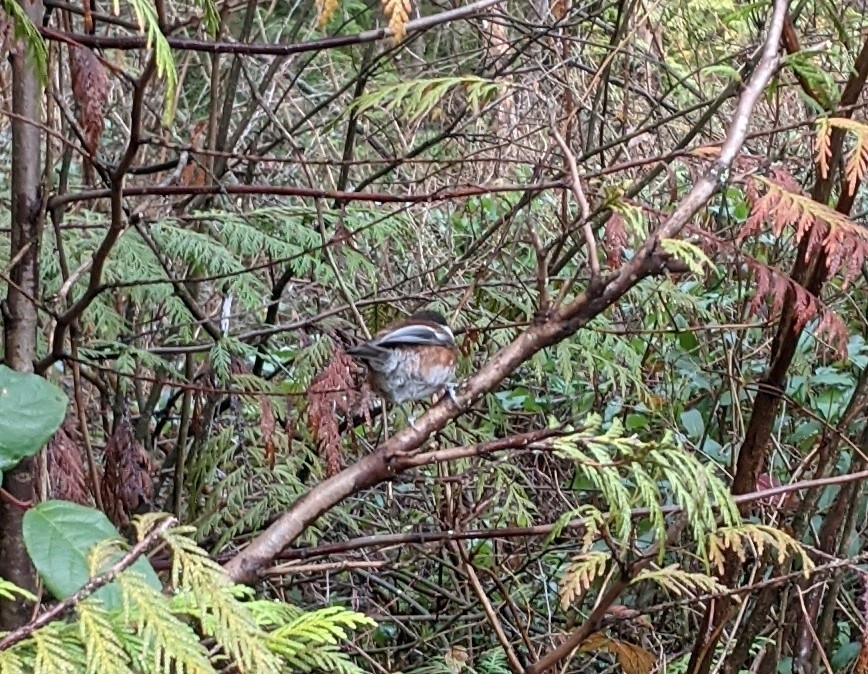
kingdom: Animalia
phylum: Chordata
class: Aves
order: Passeriformes
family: Paridae
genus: Poecile
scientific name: Poecile rufescens
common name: Chestnut-backed chickadee
